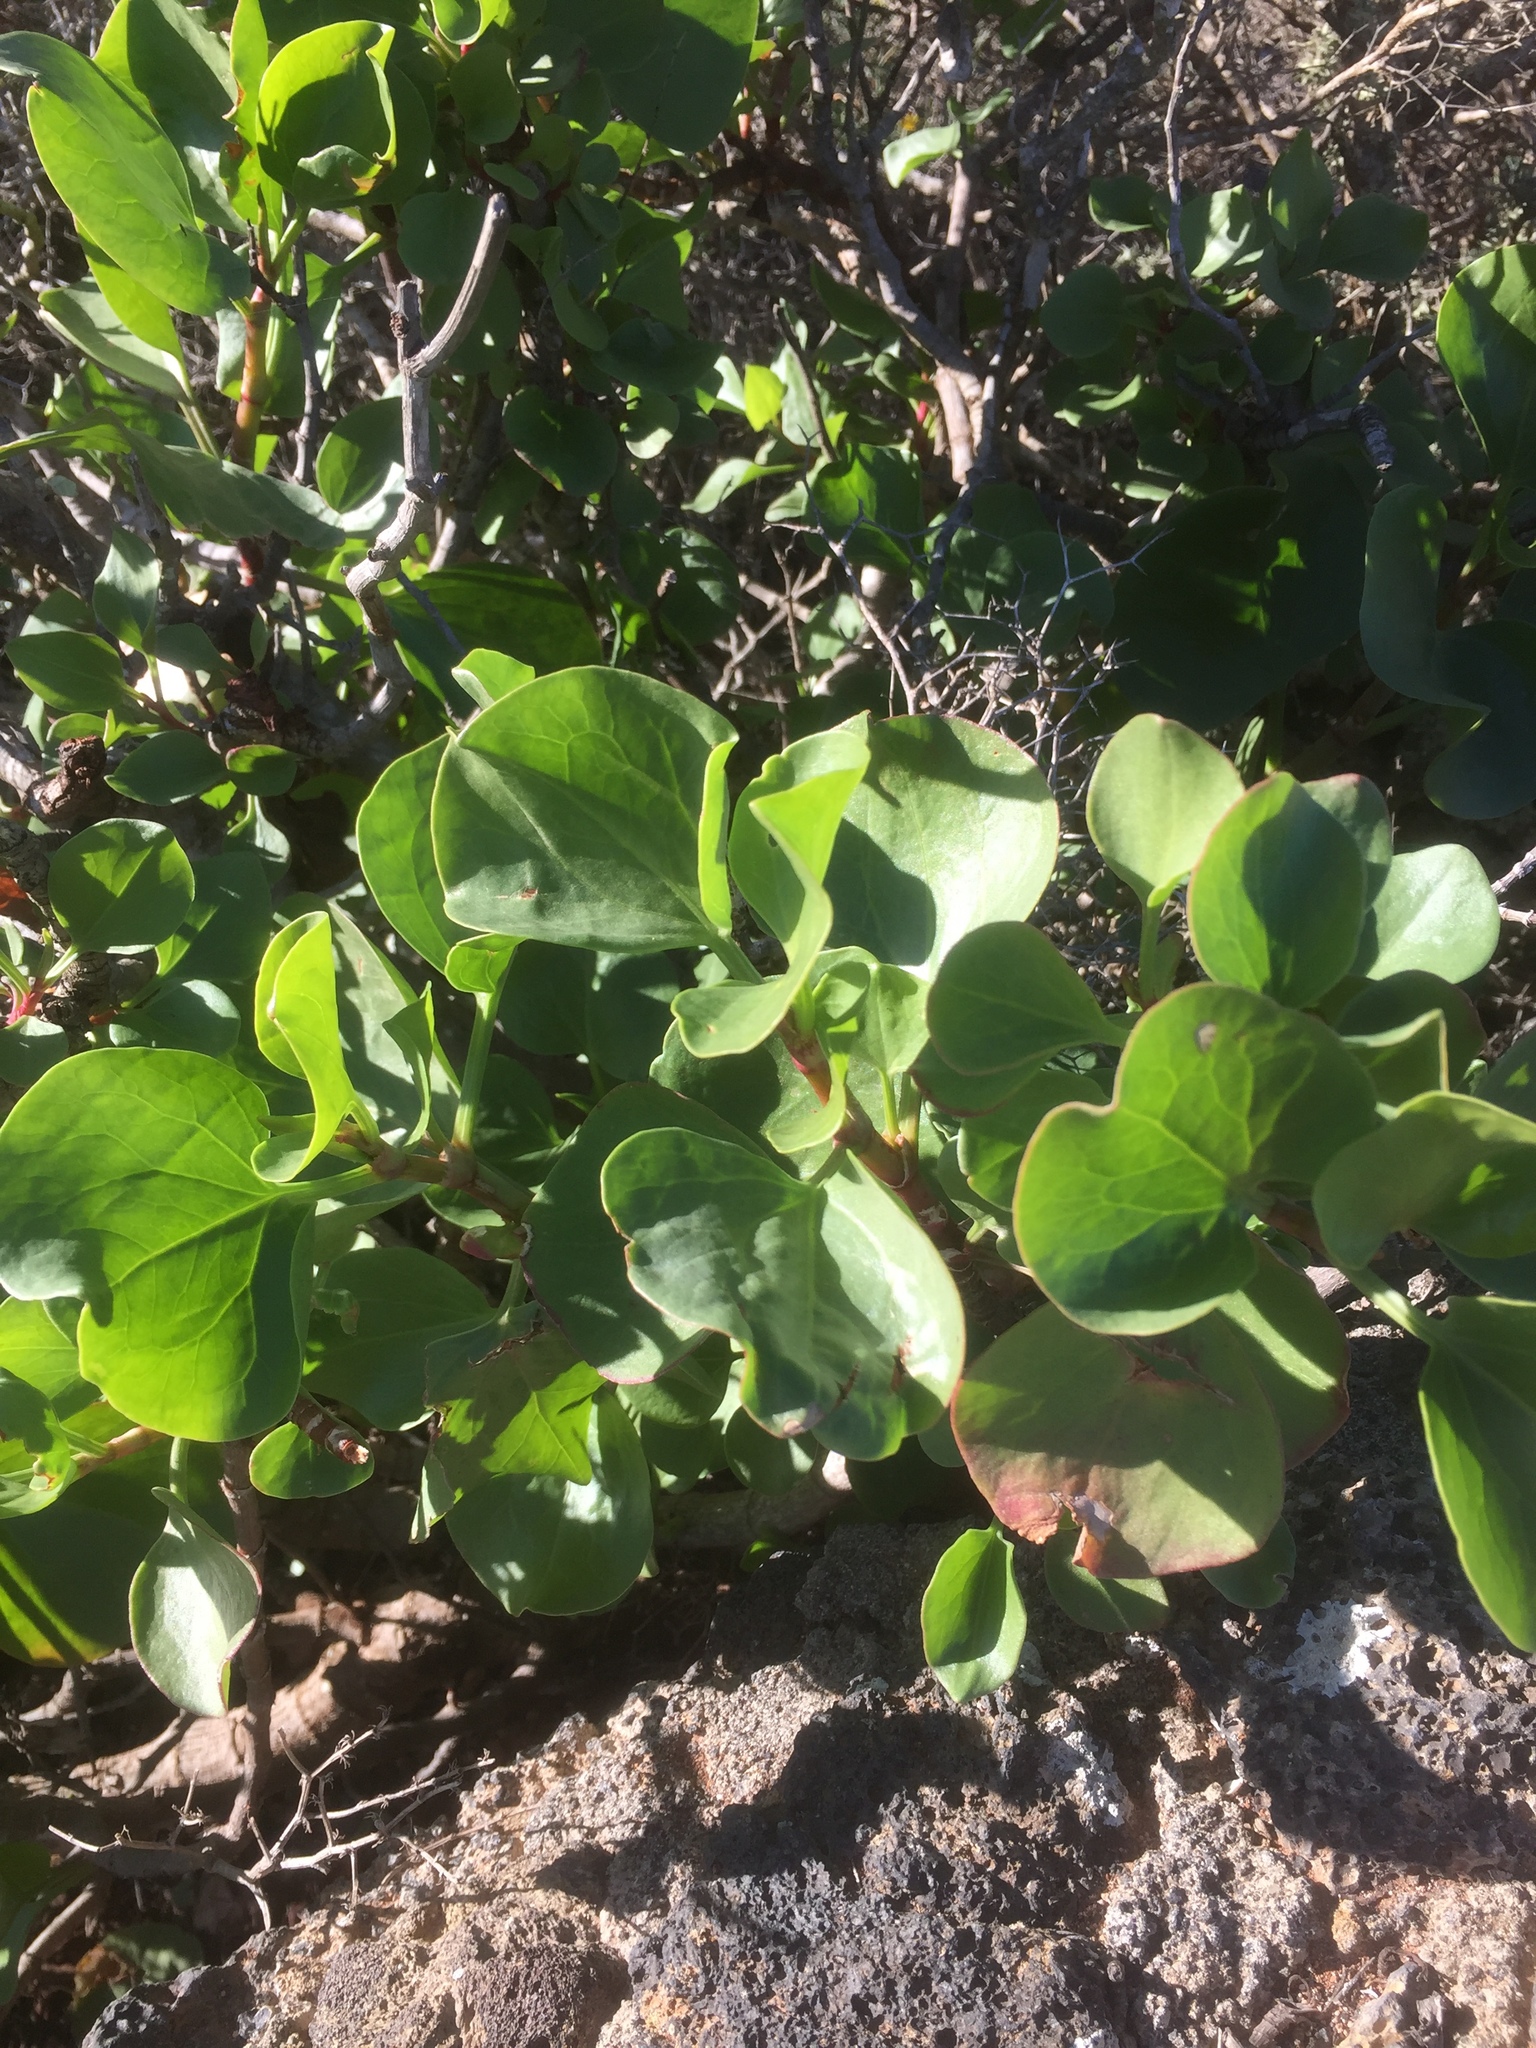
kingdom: Plantae
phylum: Tracheophyta
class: Magnoliopsida
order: Caryophyllales
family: Polygonaceae
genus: Rumex
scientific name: Rumex lunaria
